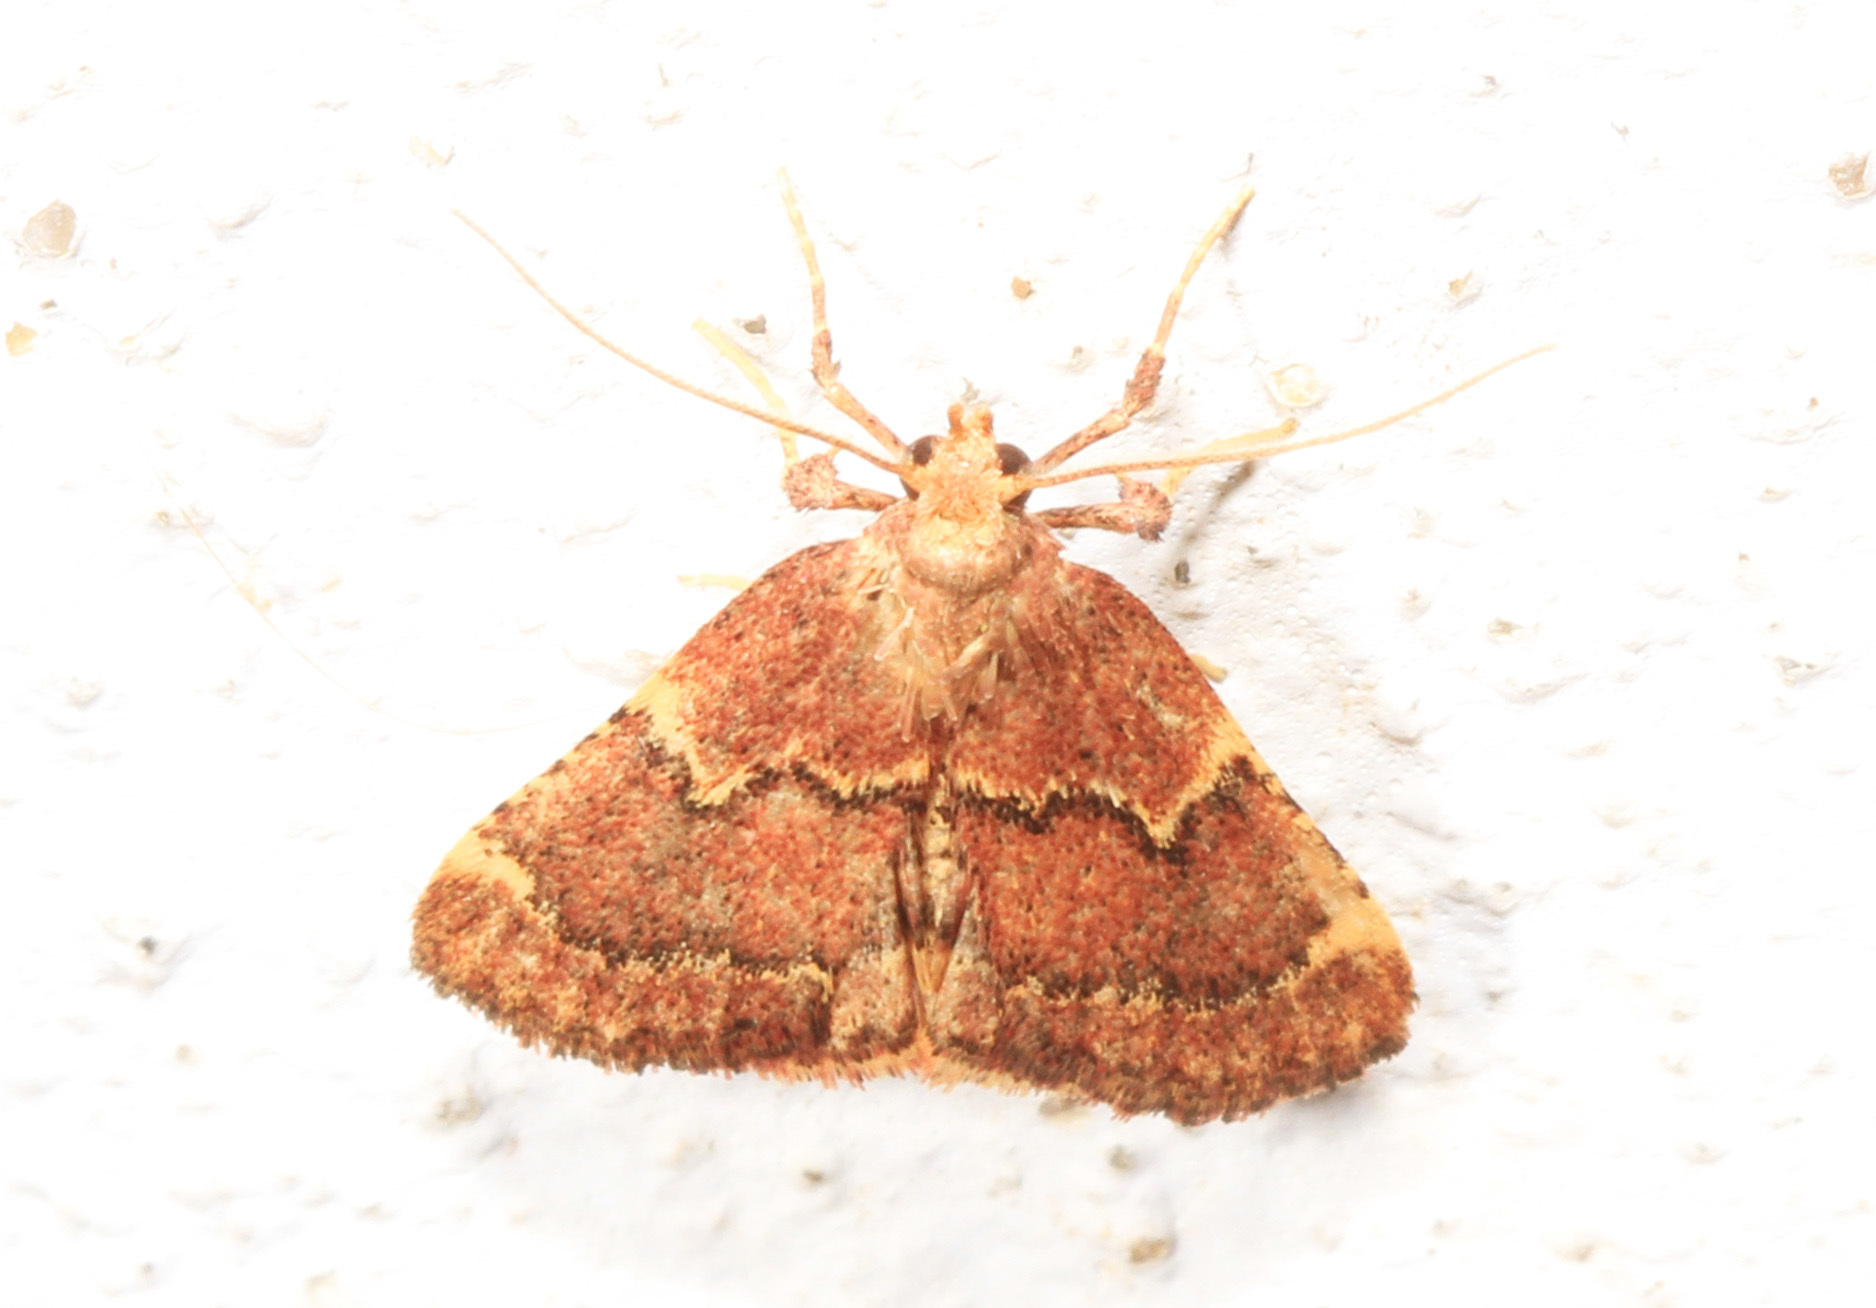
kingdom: Animalia
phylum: Arthropoda
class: Insecta
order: Lepidoptera
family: Pyralidae
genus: Hypsopygia
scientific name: Hypsopygia intermedialis
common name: Red-shawled moth
